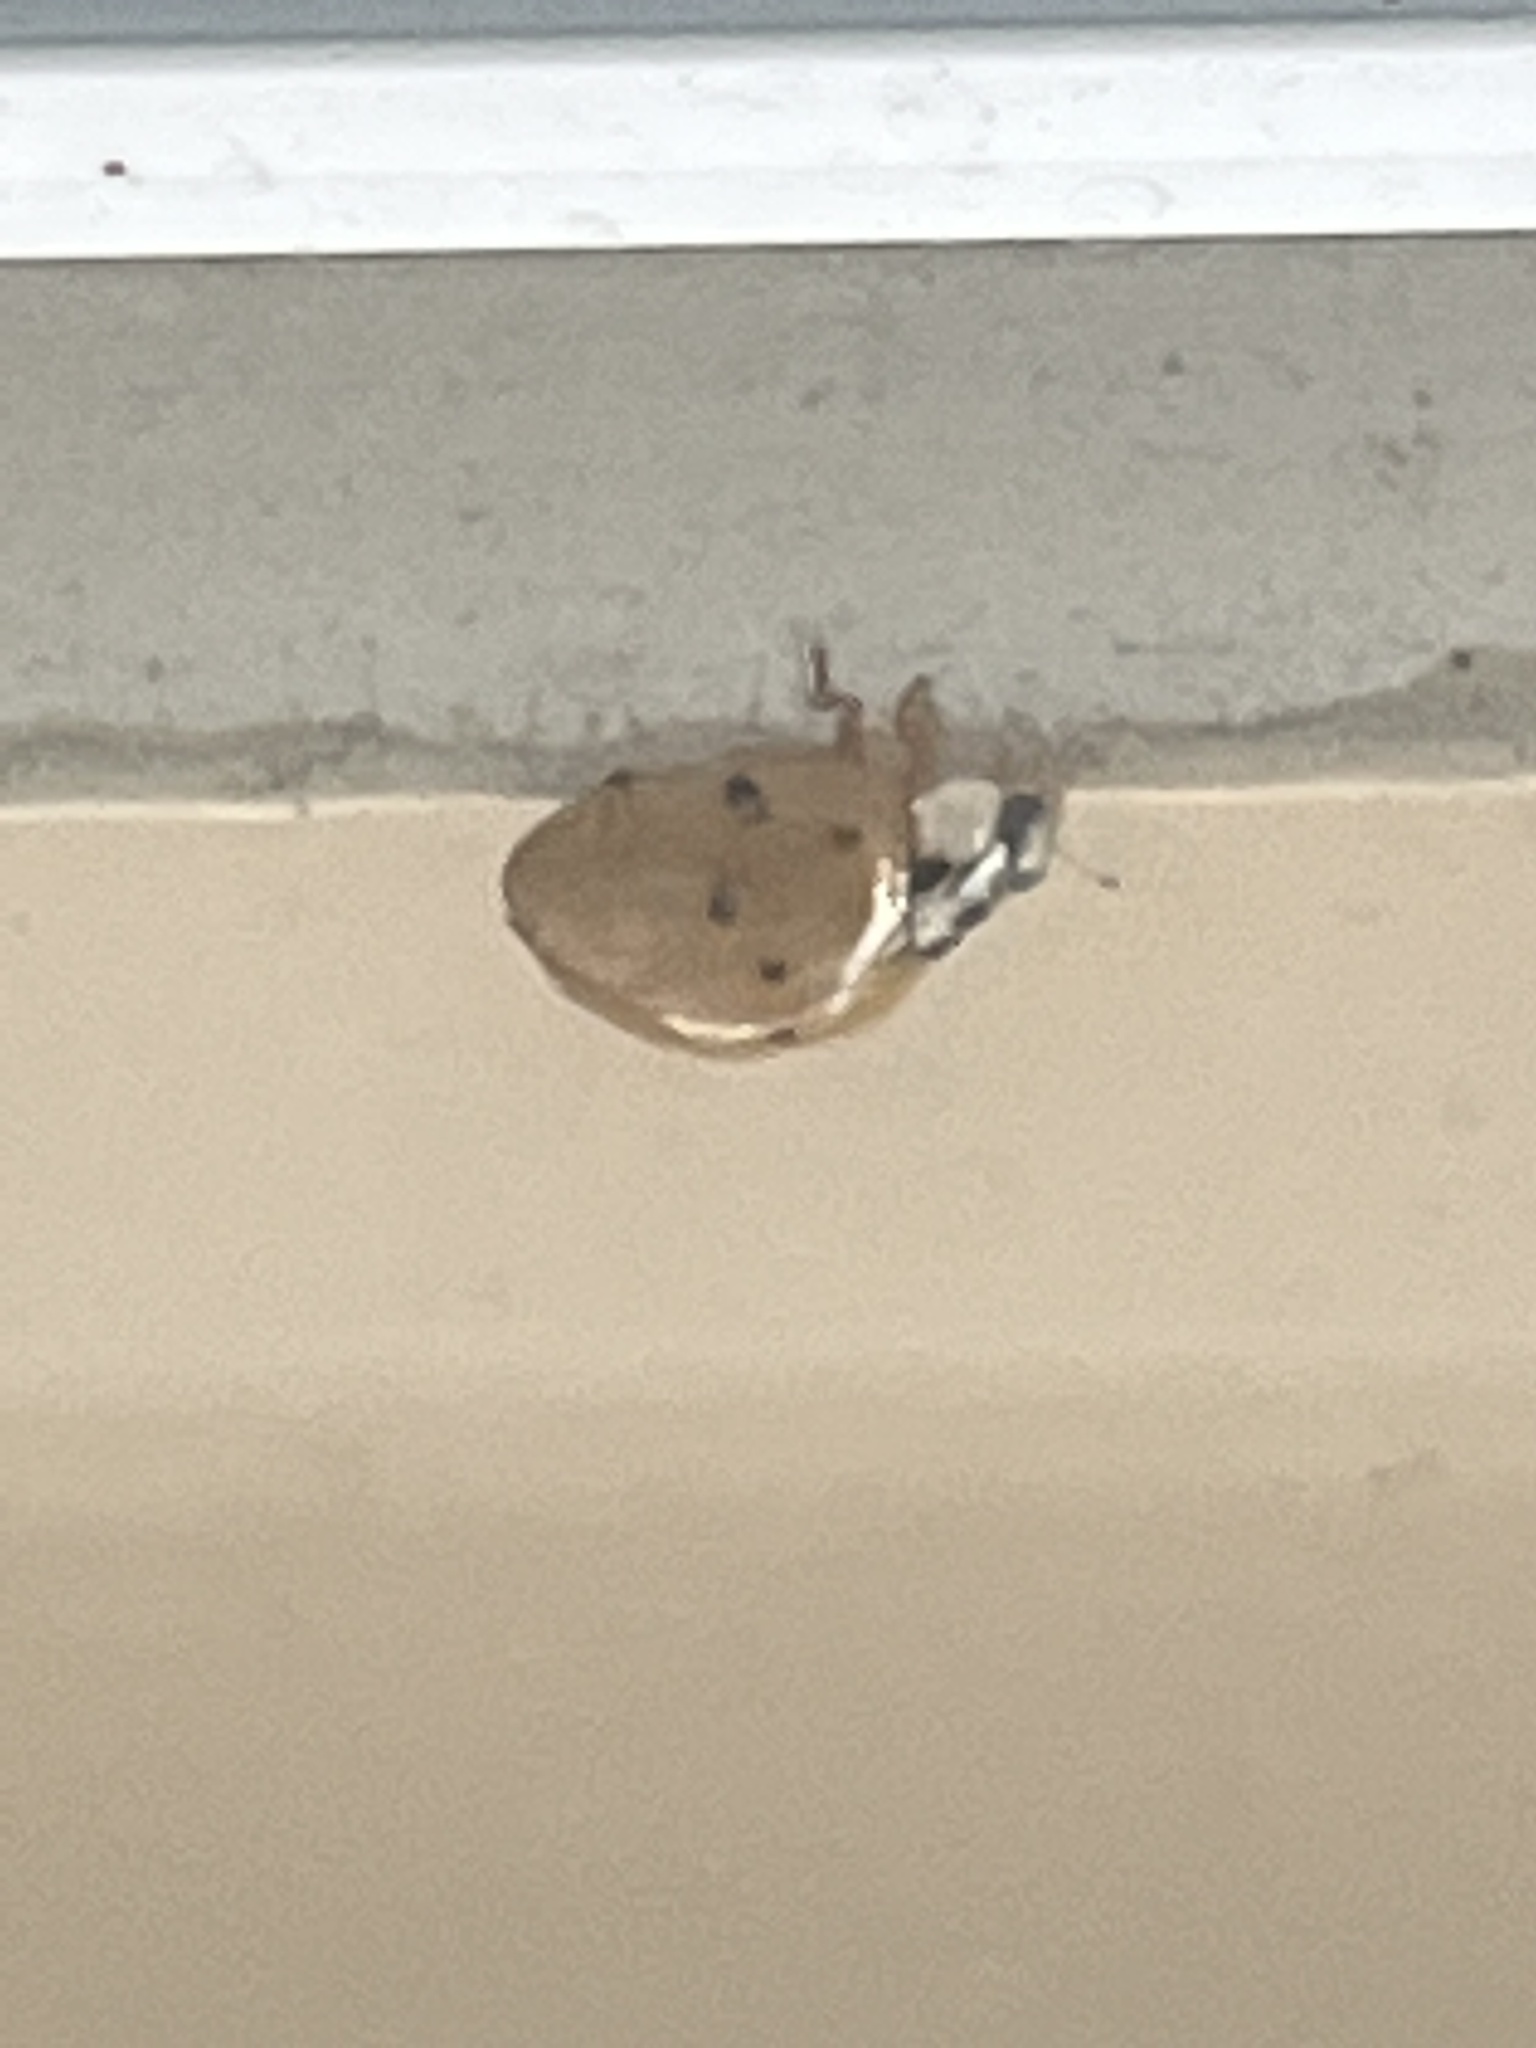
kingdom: Animalia
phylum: Arthropoda
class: Insecta
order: Coleoptera
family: Coccinellidae
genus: Harmonia
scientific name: Harmonia axyridis
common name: Harlequin ladybird
